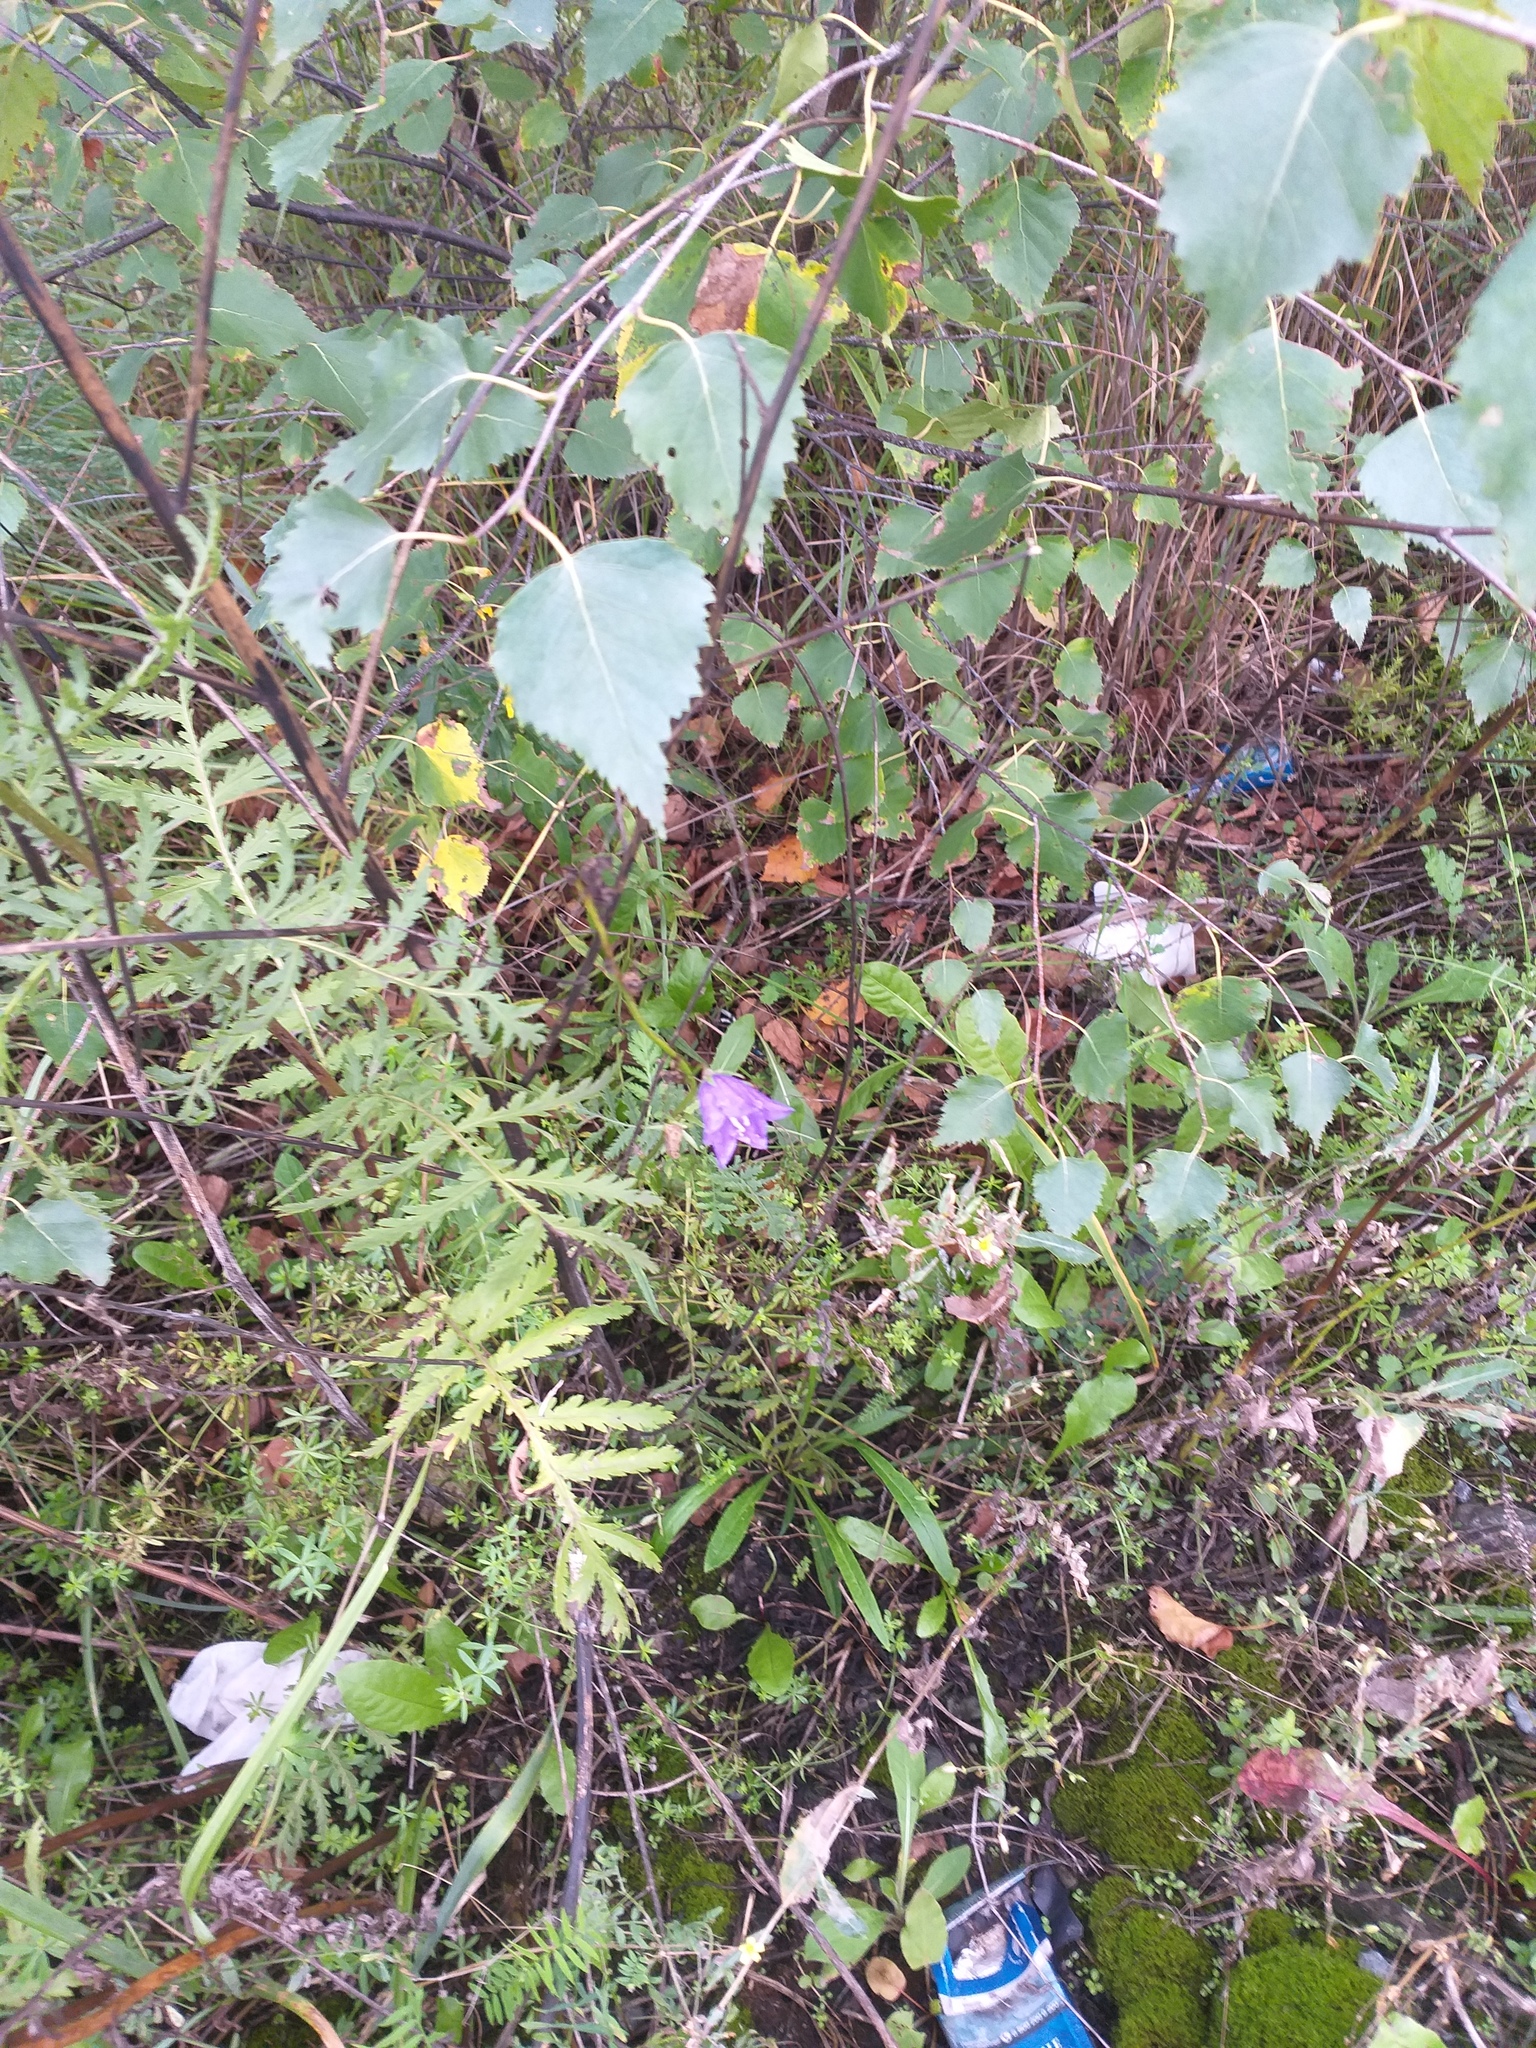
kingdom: Plantae
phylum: Tracheophyta
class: Magnoliopsida
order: Asterales
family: Campanulaceae
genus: Campanula
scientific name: Campanula persicifolia
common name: Peach-leaved bellflower
